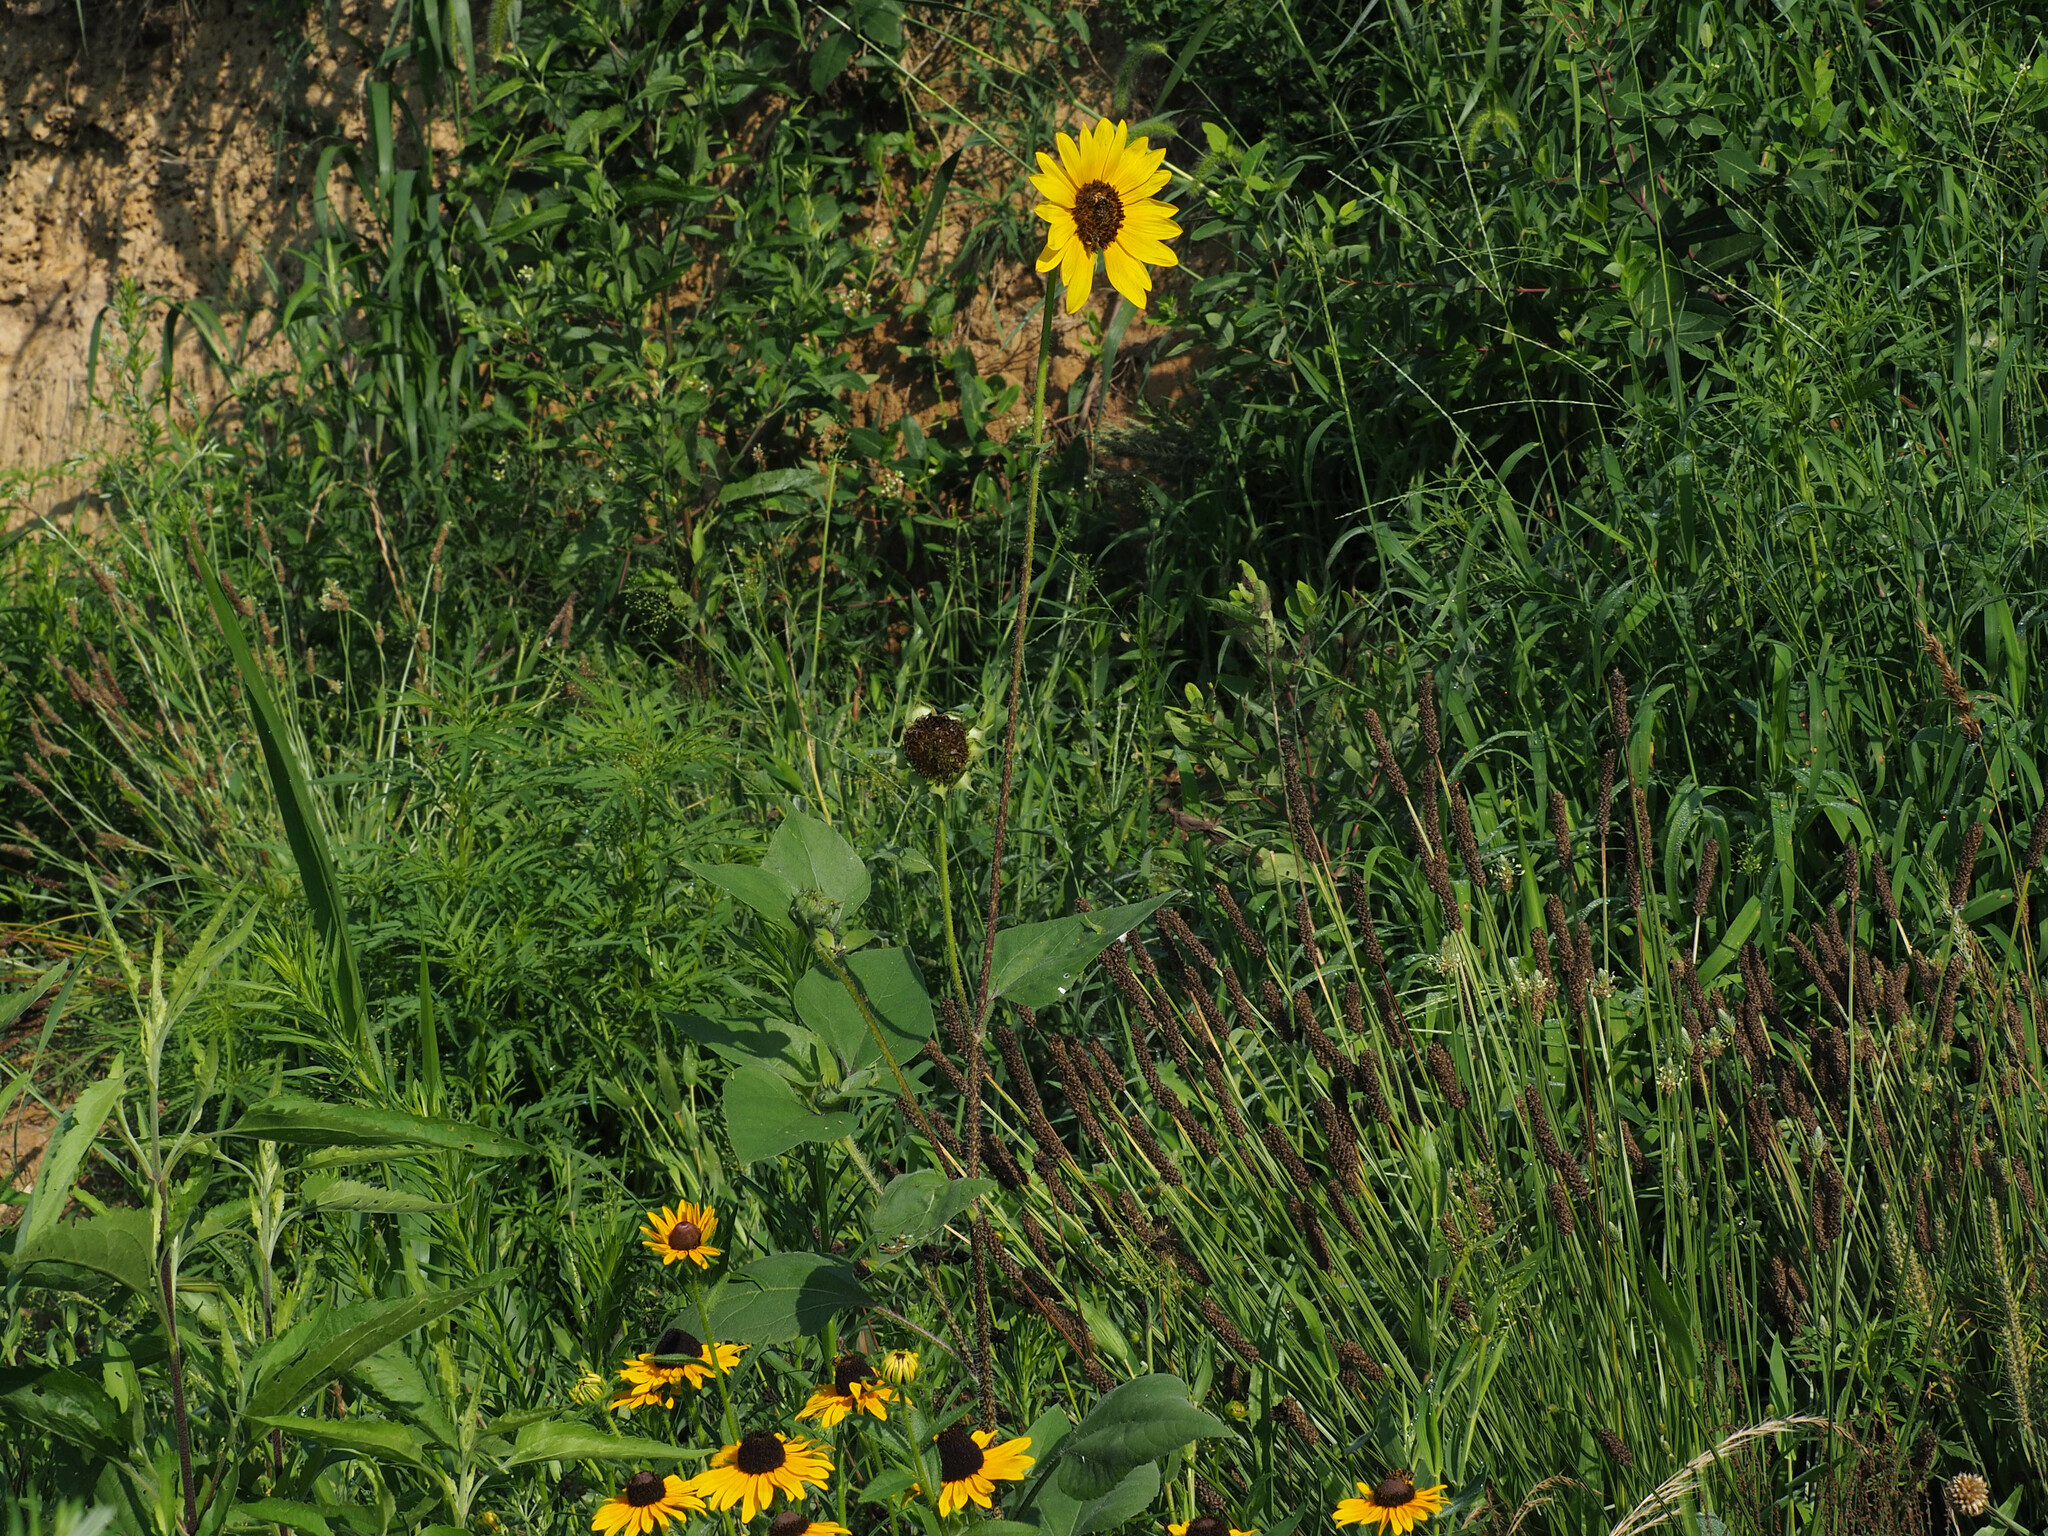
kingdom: Plantae
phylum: Tracheophyta
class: Magnoliopsida
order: Asterales
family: Asteraceae
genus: Helianthus
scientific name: Helianthus annuus
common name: Sunflower
